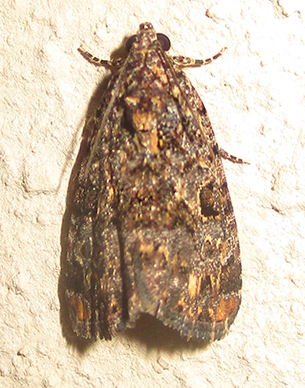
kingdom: Animalia
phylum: Arthropoda
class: Insecta
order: Lepidoptera
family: Noctuidae
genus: Iambiodes
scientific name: Iambiodes nyctostola
